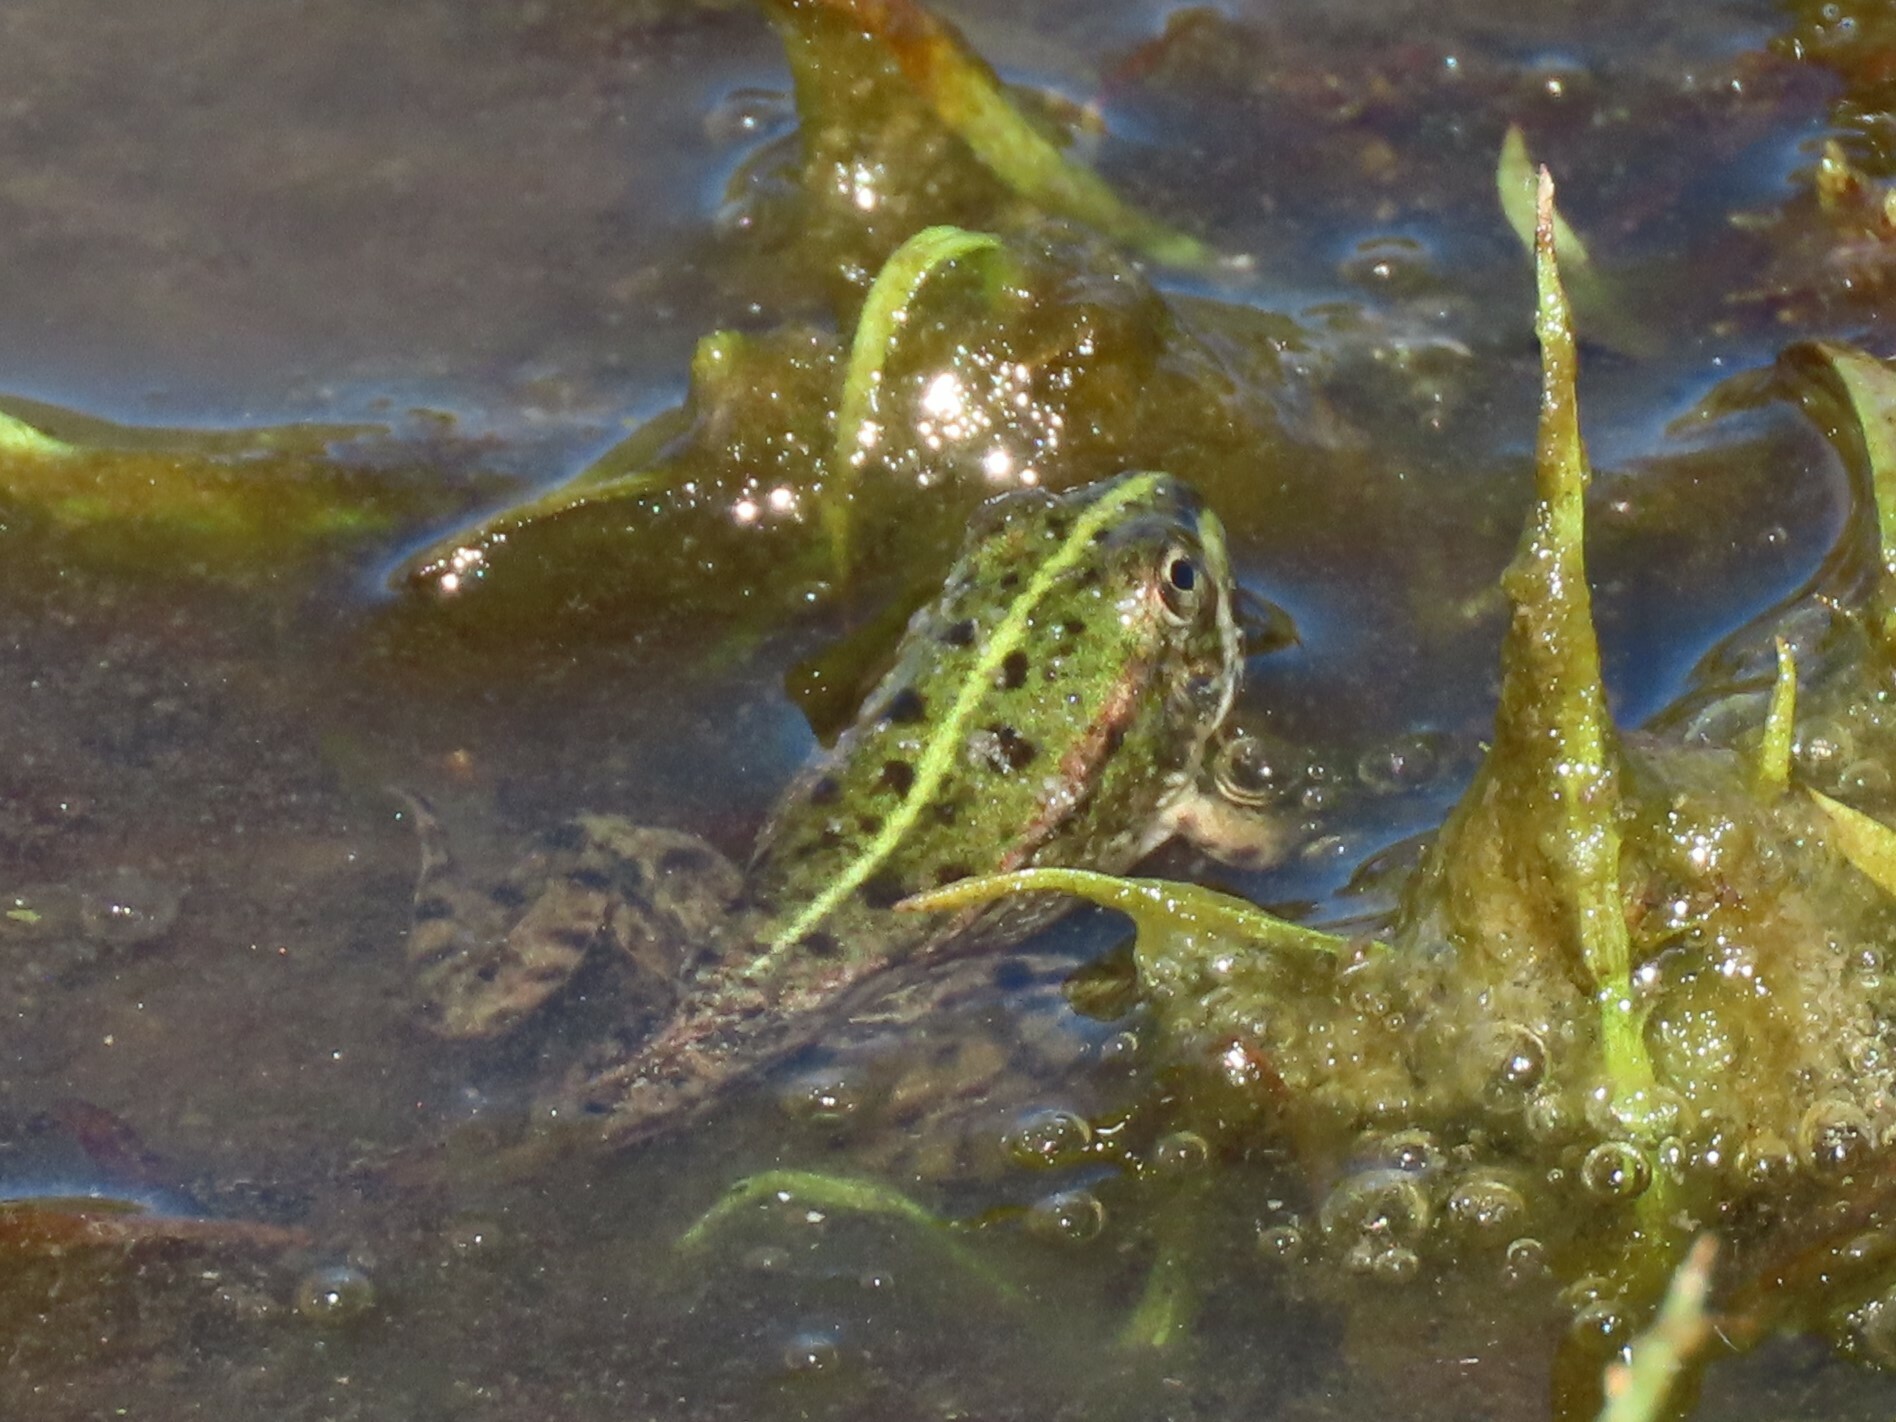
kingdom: Animalia
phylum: Chordata
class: Amphibia
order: Anura
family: Ranidae
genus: Pelophylax
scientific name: Pelophylax perezi
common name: Perez's frog
